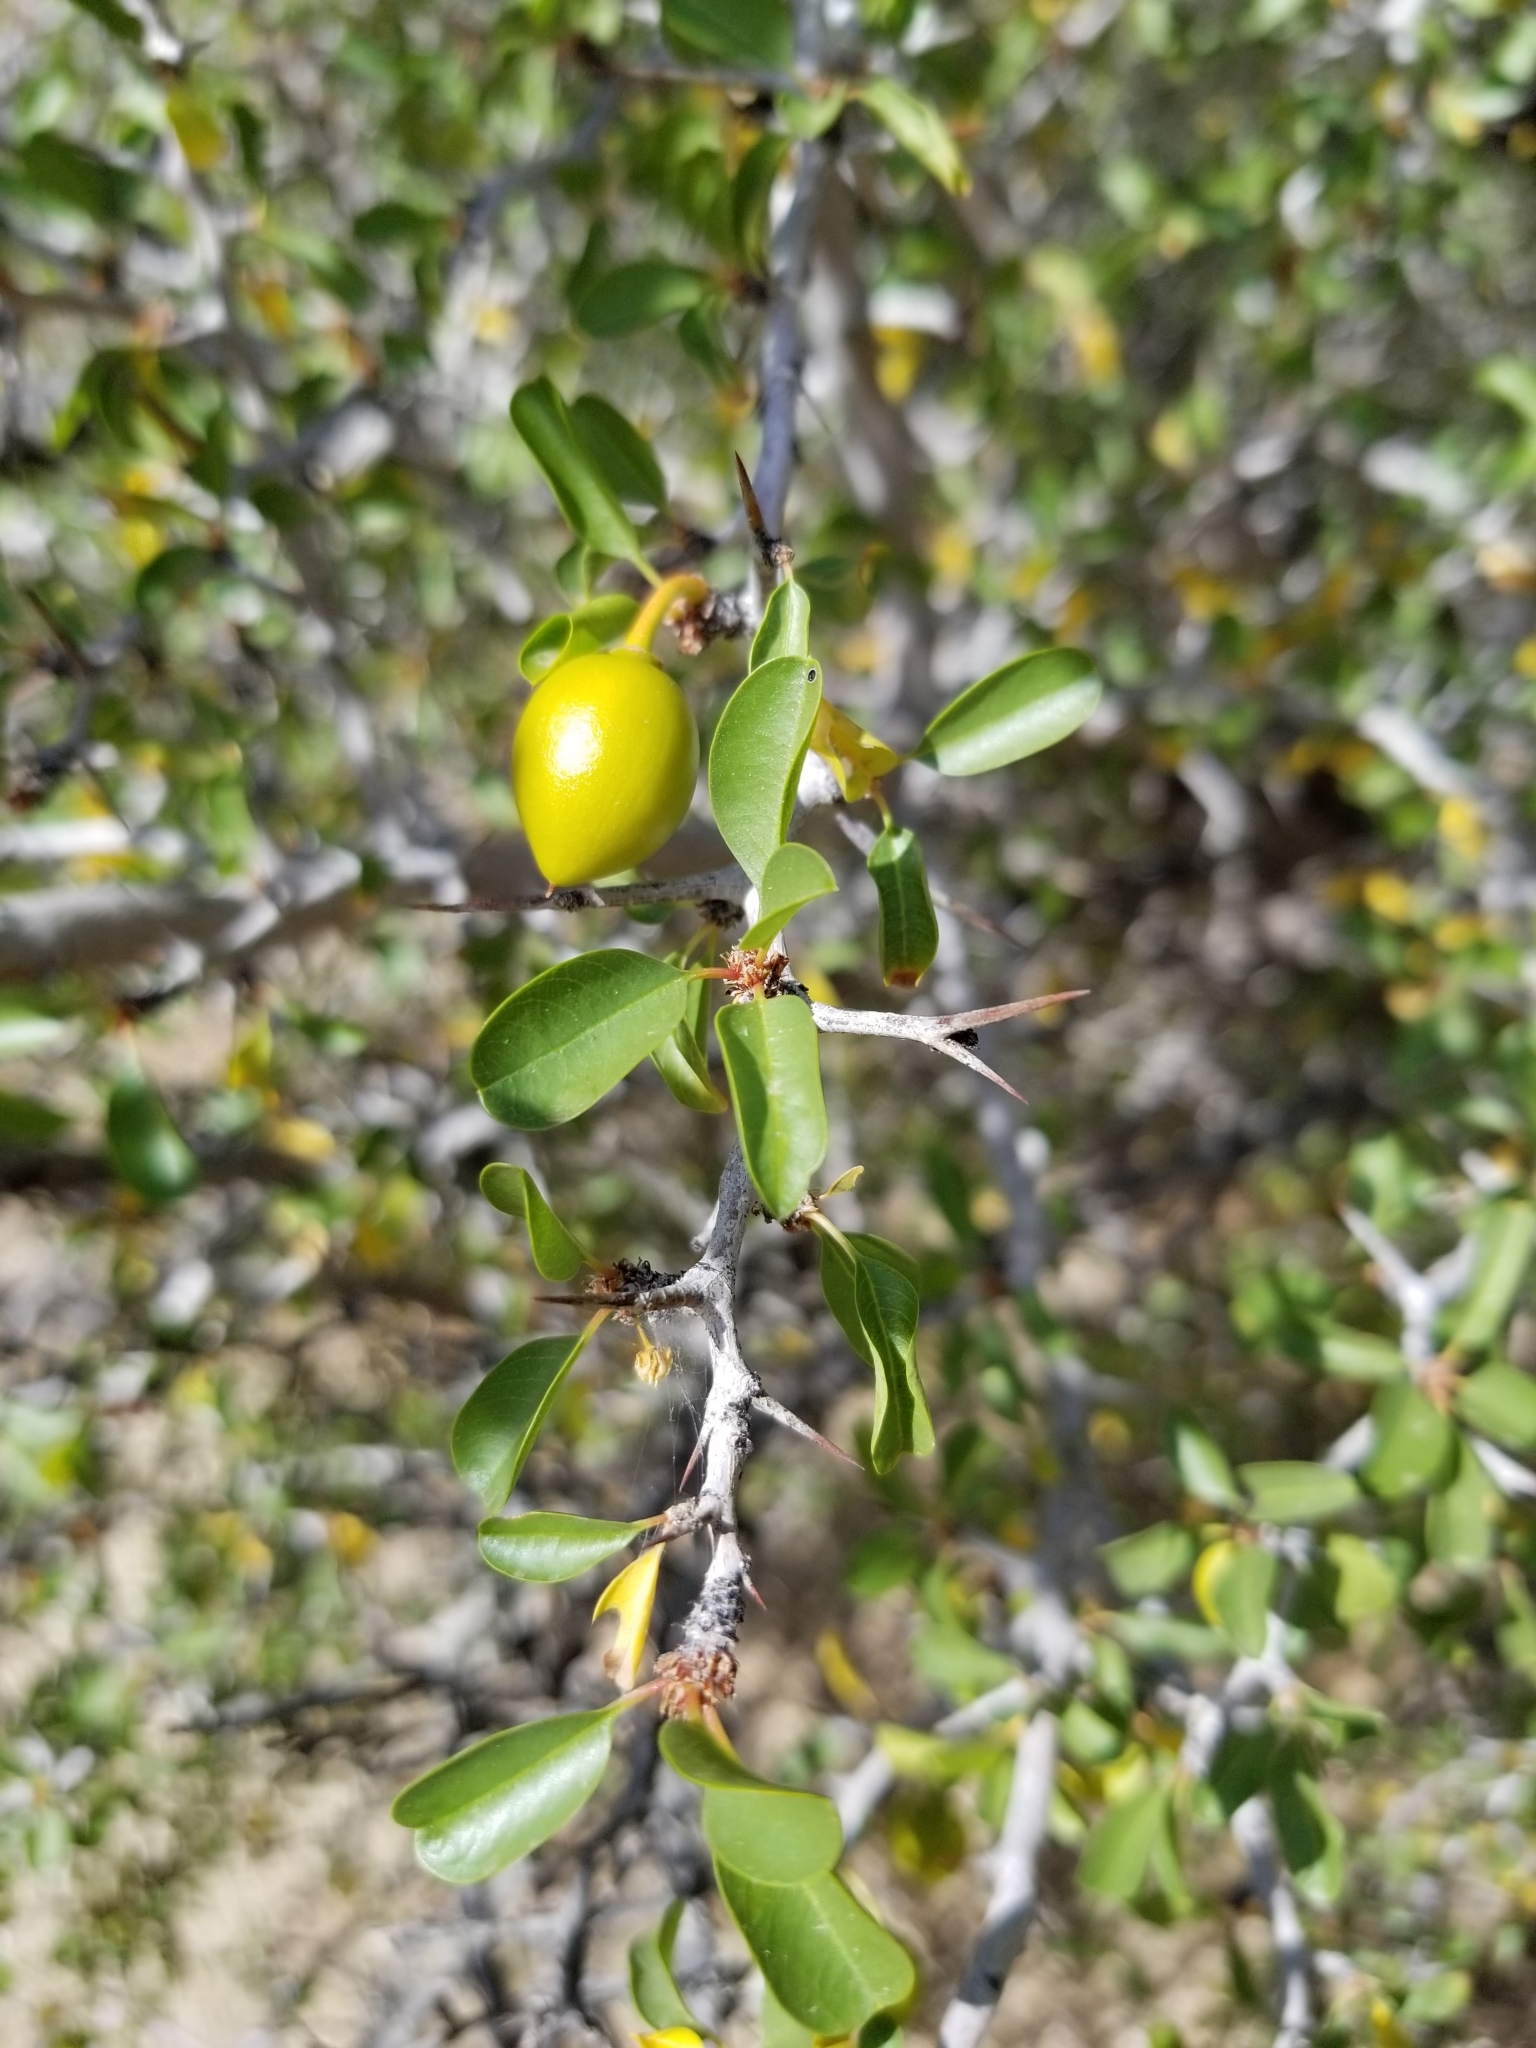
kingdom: Plantae
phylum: Tracheophyta
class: Magnoliopsida
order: Rosales
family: Rhamnaceae
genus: Pseudoziziphus
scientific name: Pseudoziziphus parryi
